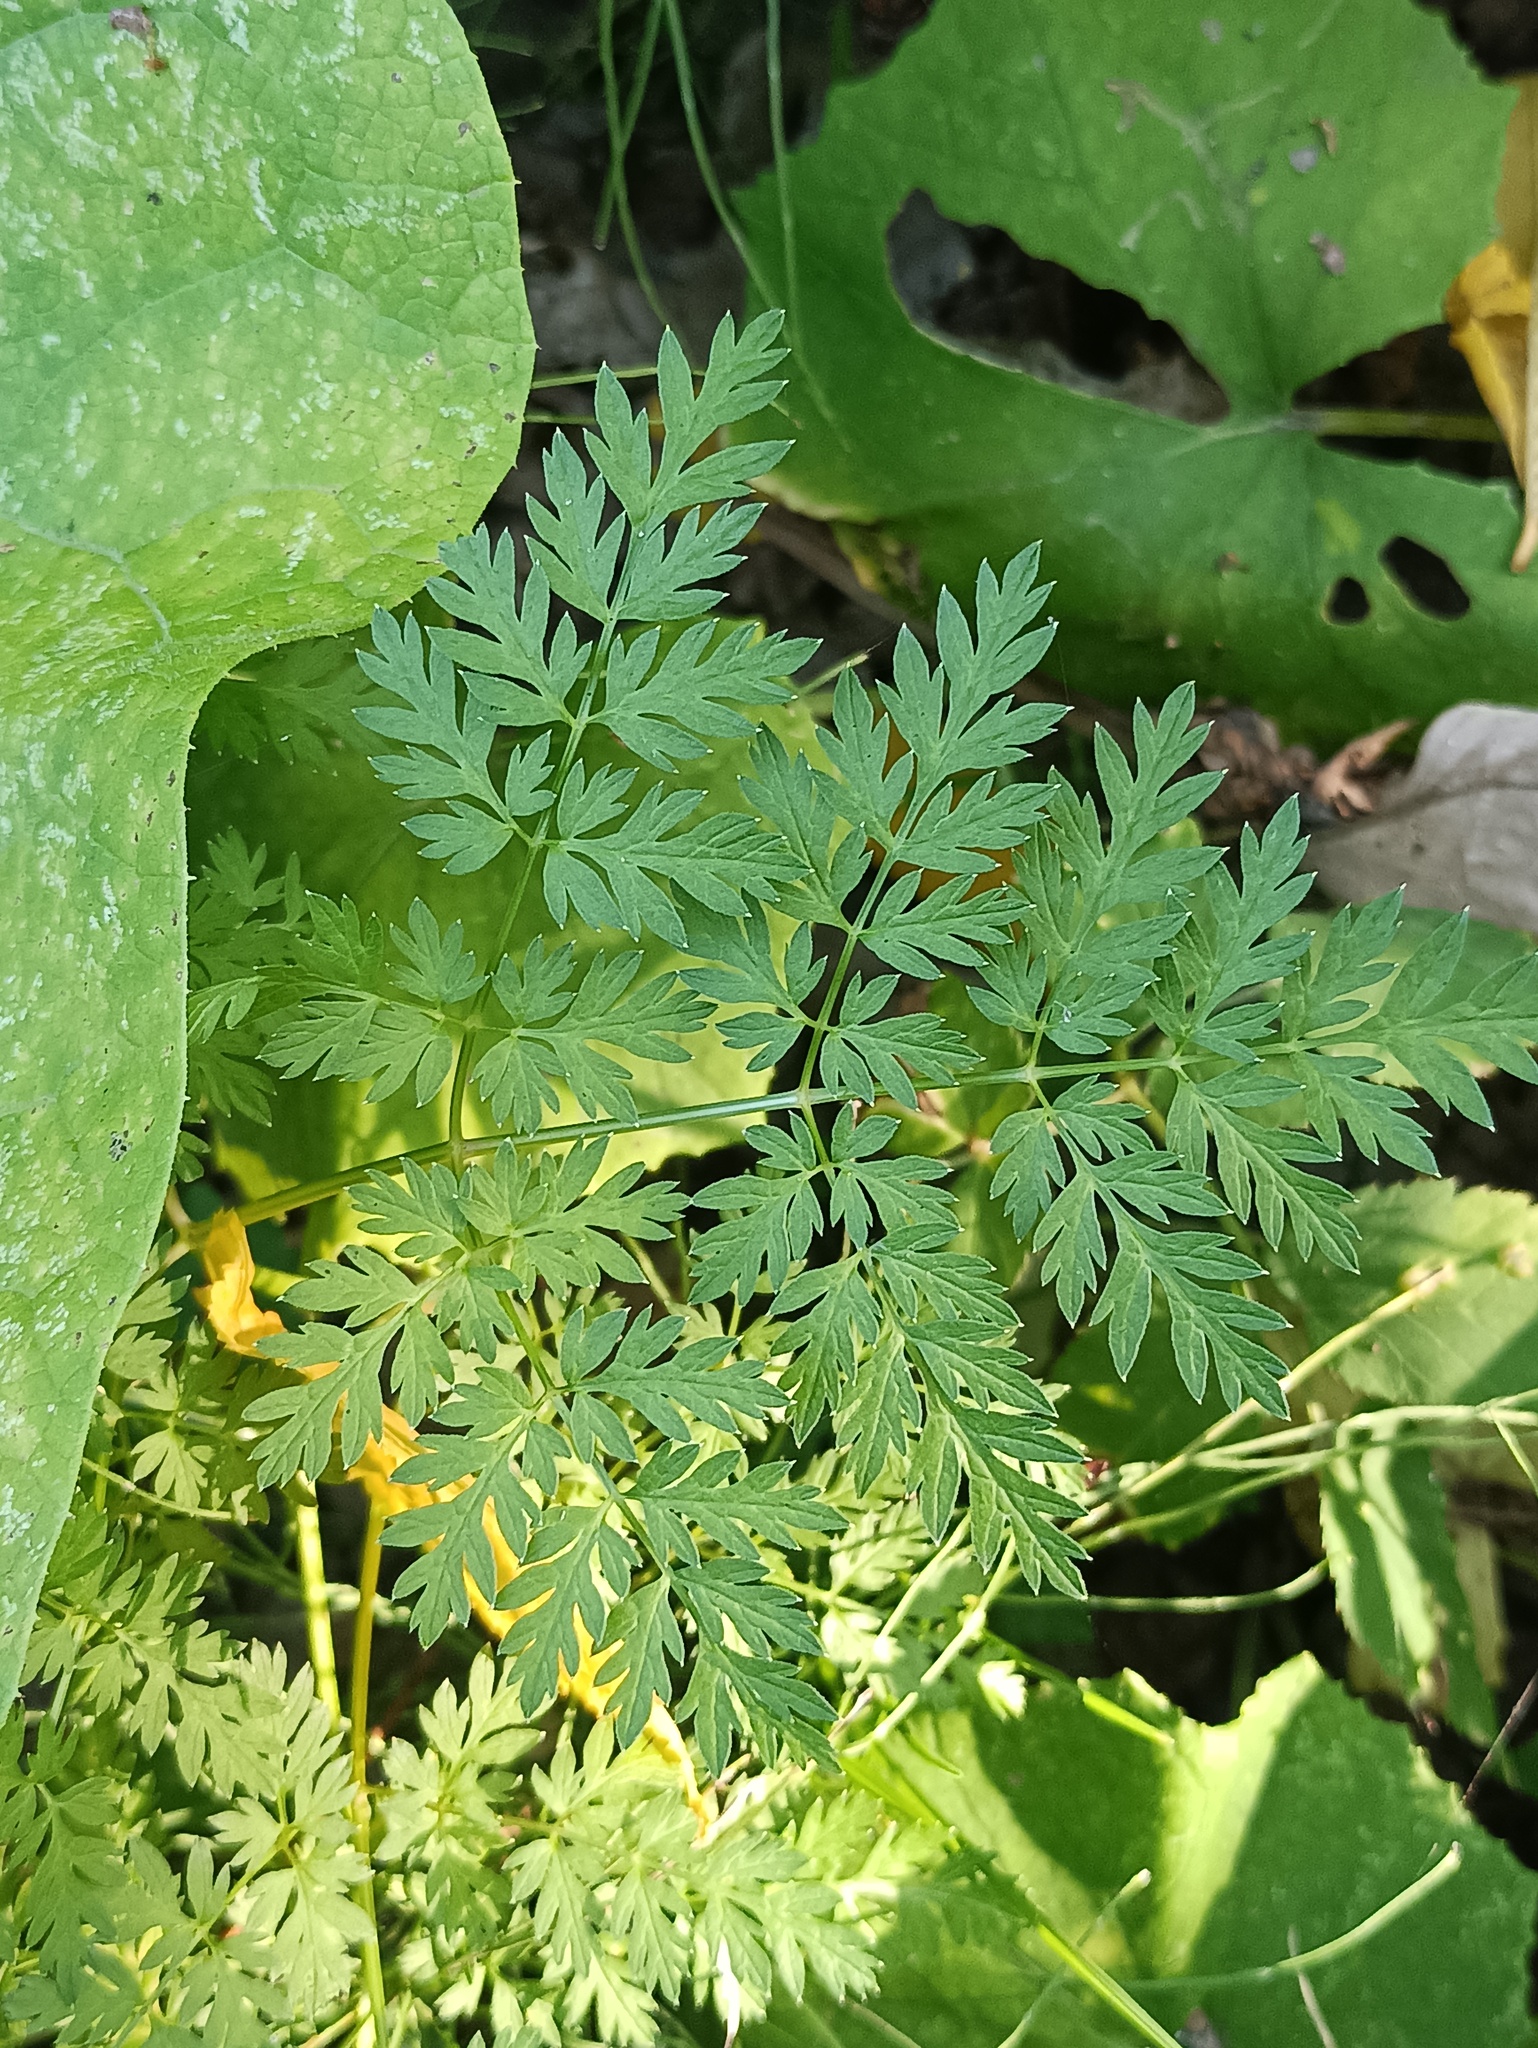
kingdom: Plantae
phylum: Tracheophyta
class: Magnoliopsida
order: Apiales
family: Apiaceae
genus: Anthriscus
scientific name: Anthriscus sylvestris
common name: Cow parsley
